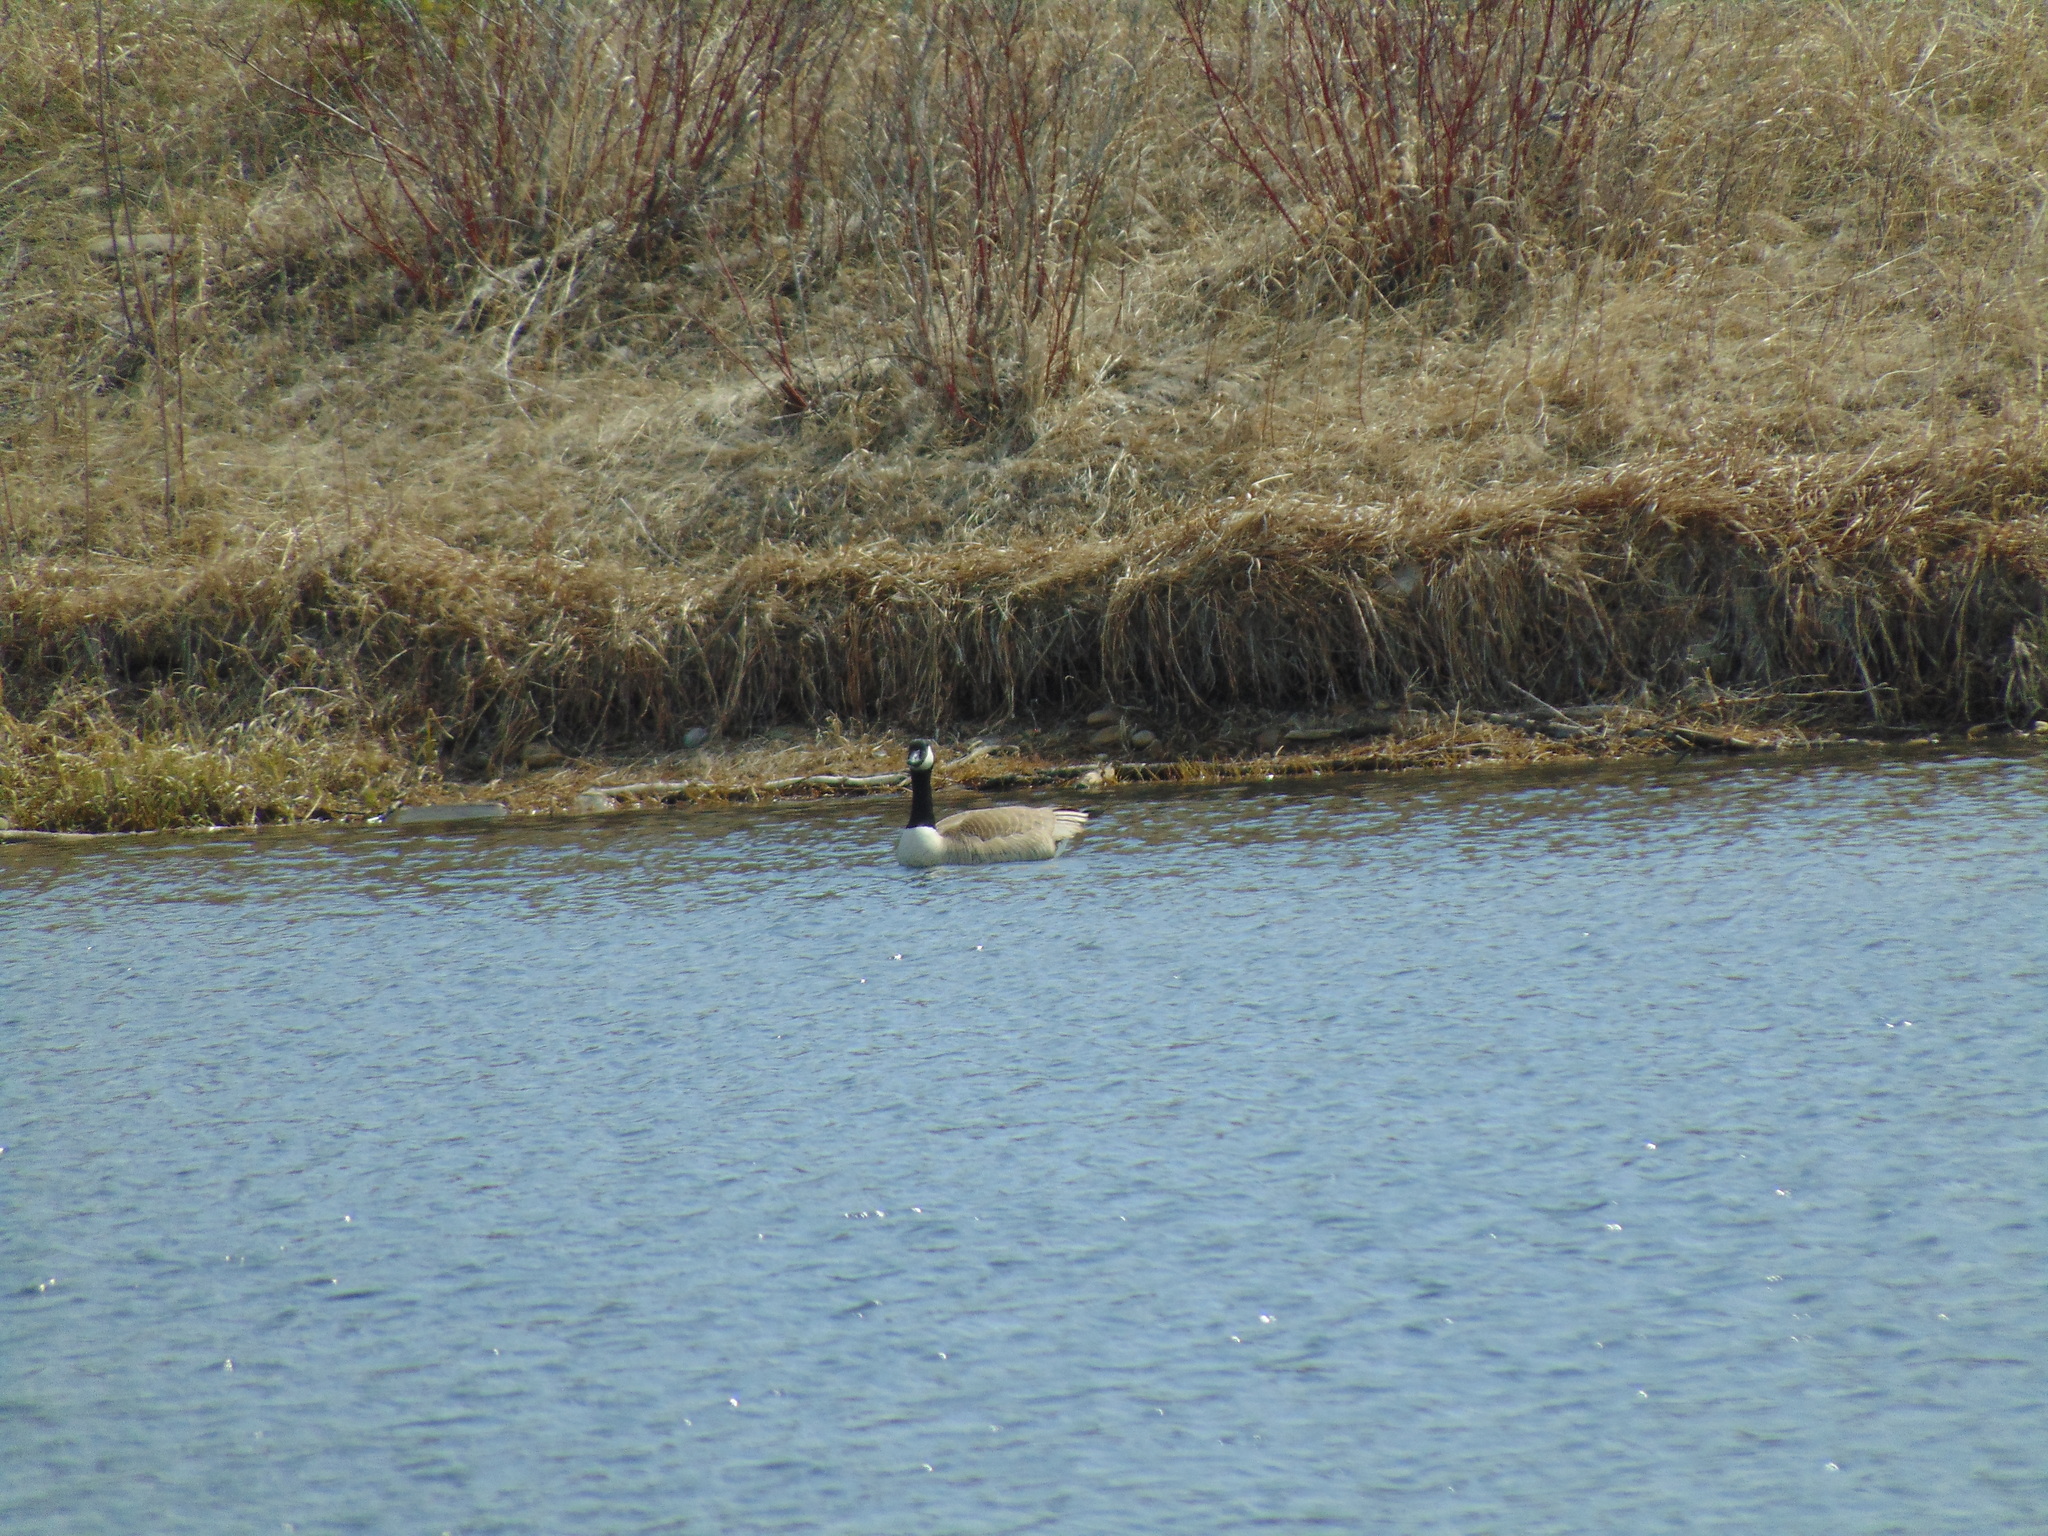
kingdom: Animalia
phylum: Chordata
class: Aves
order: Anseriformes
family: Anatidae
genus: Branta
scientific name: Branta canadensis
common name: Canada goose
